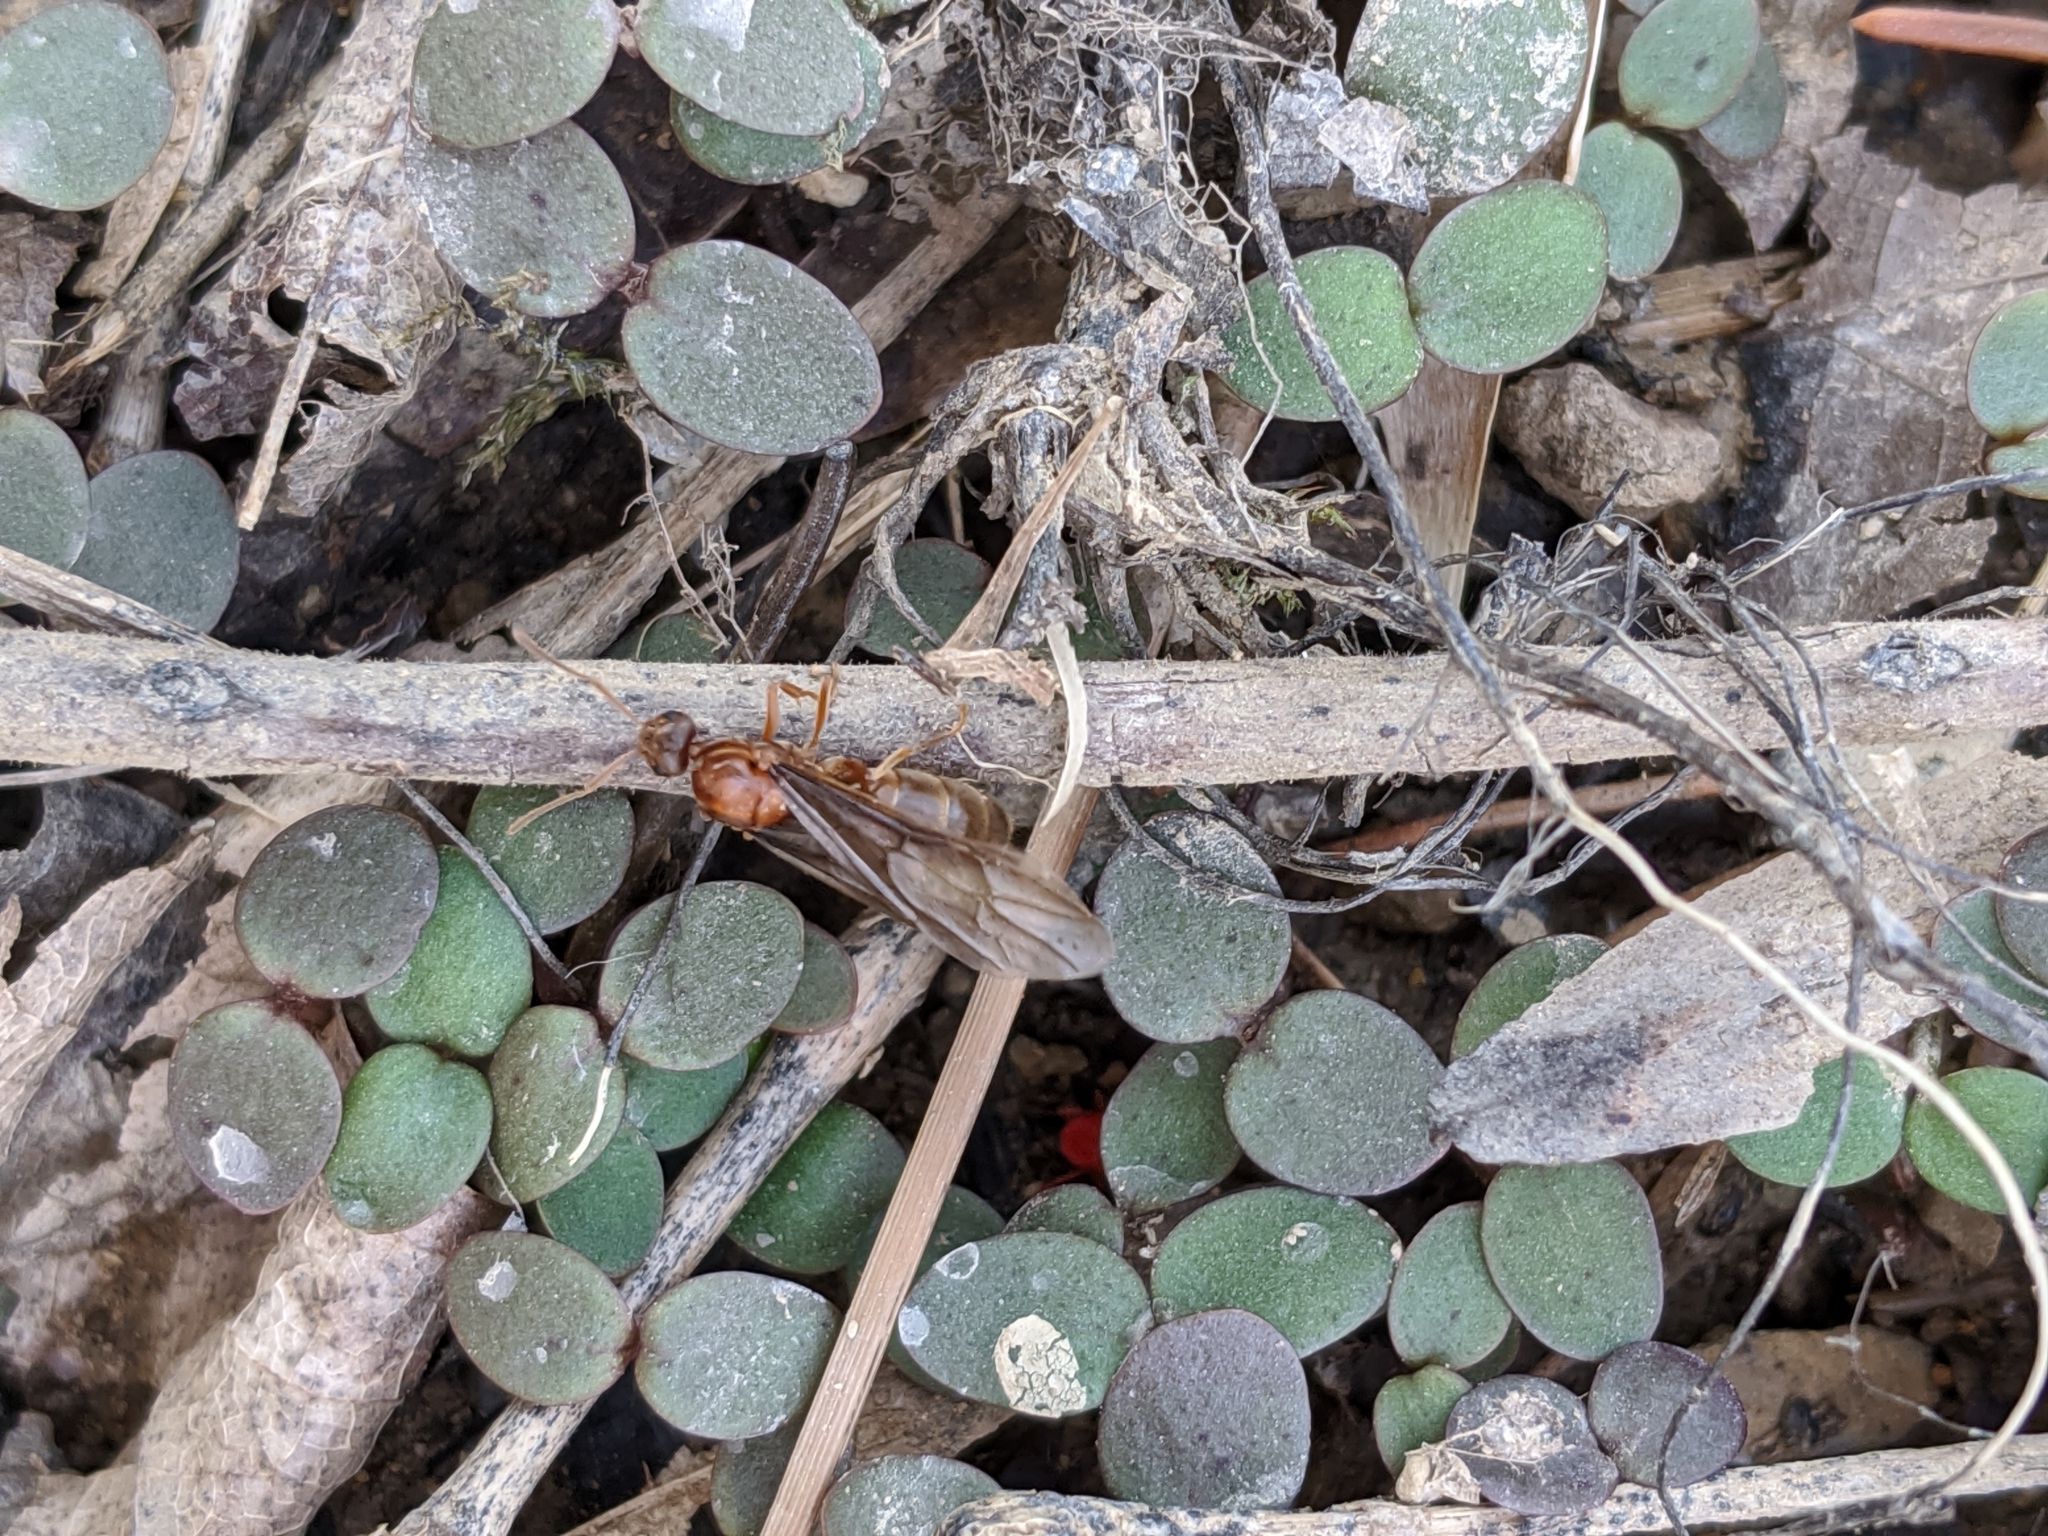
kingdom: Animalia
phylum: Arthropoda
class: Insecta
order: Hymenoptera
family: Formicidae
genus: Prenolepis
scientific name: Prenolepis imparis
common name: Small honey ant
